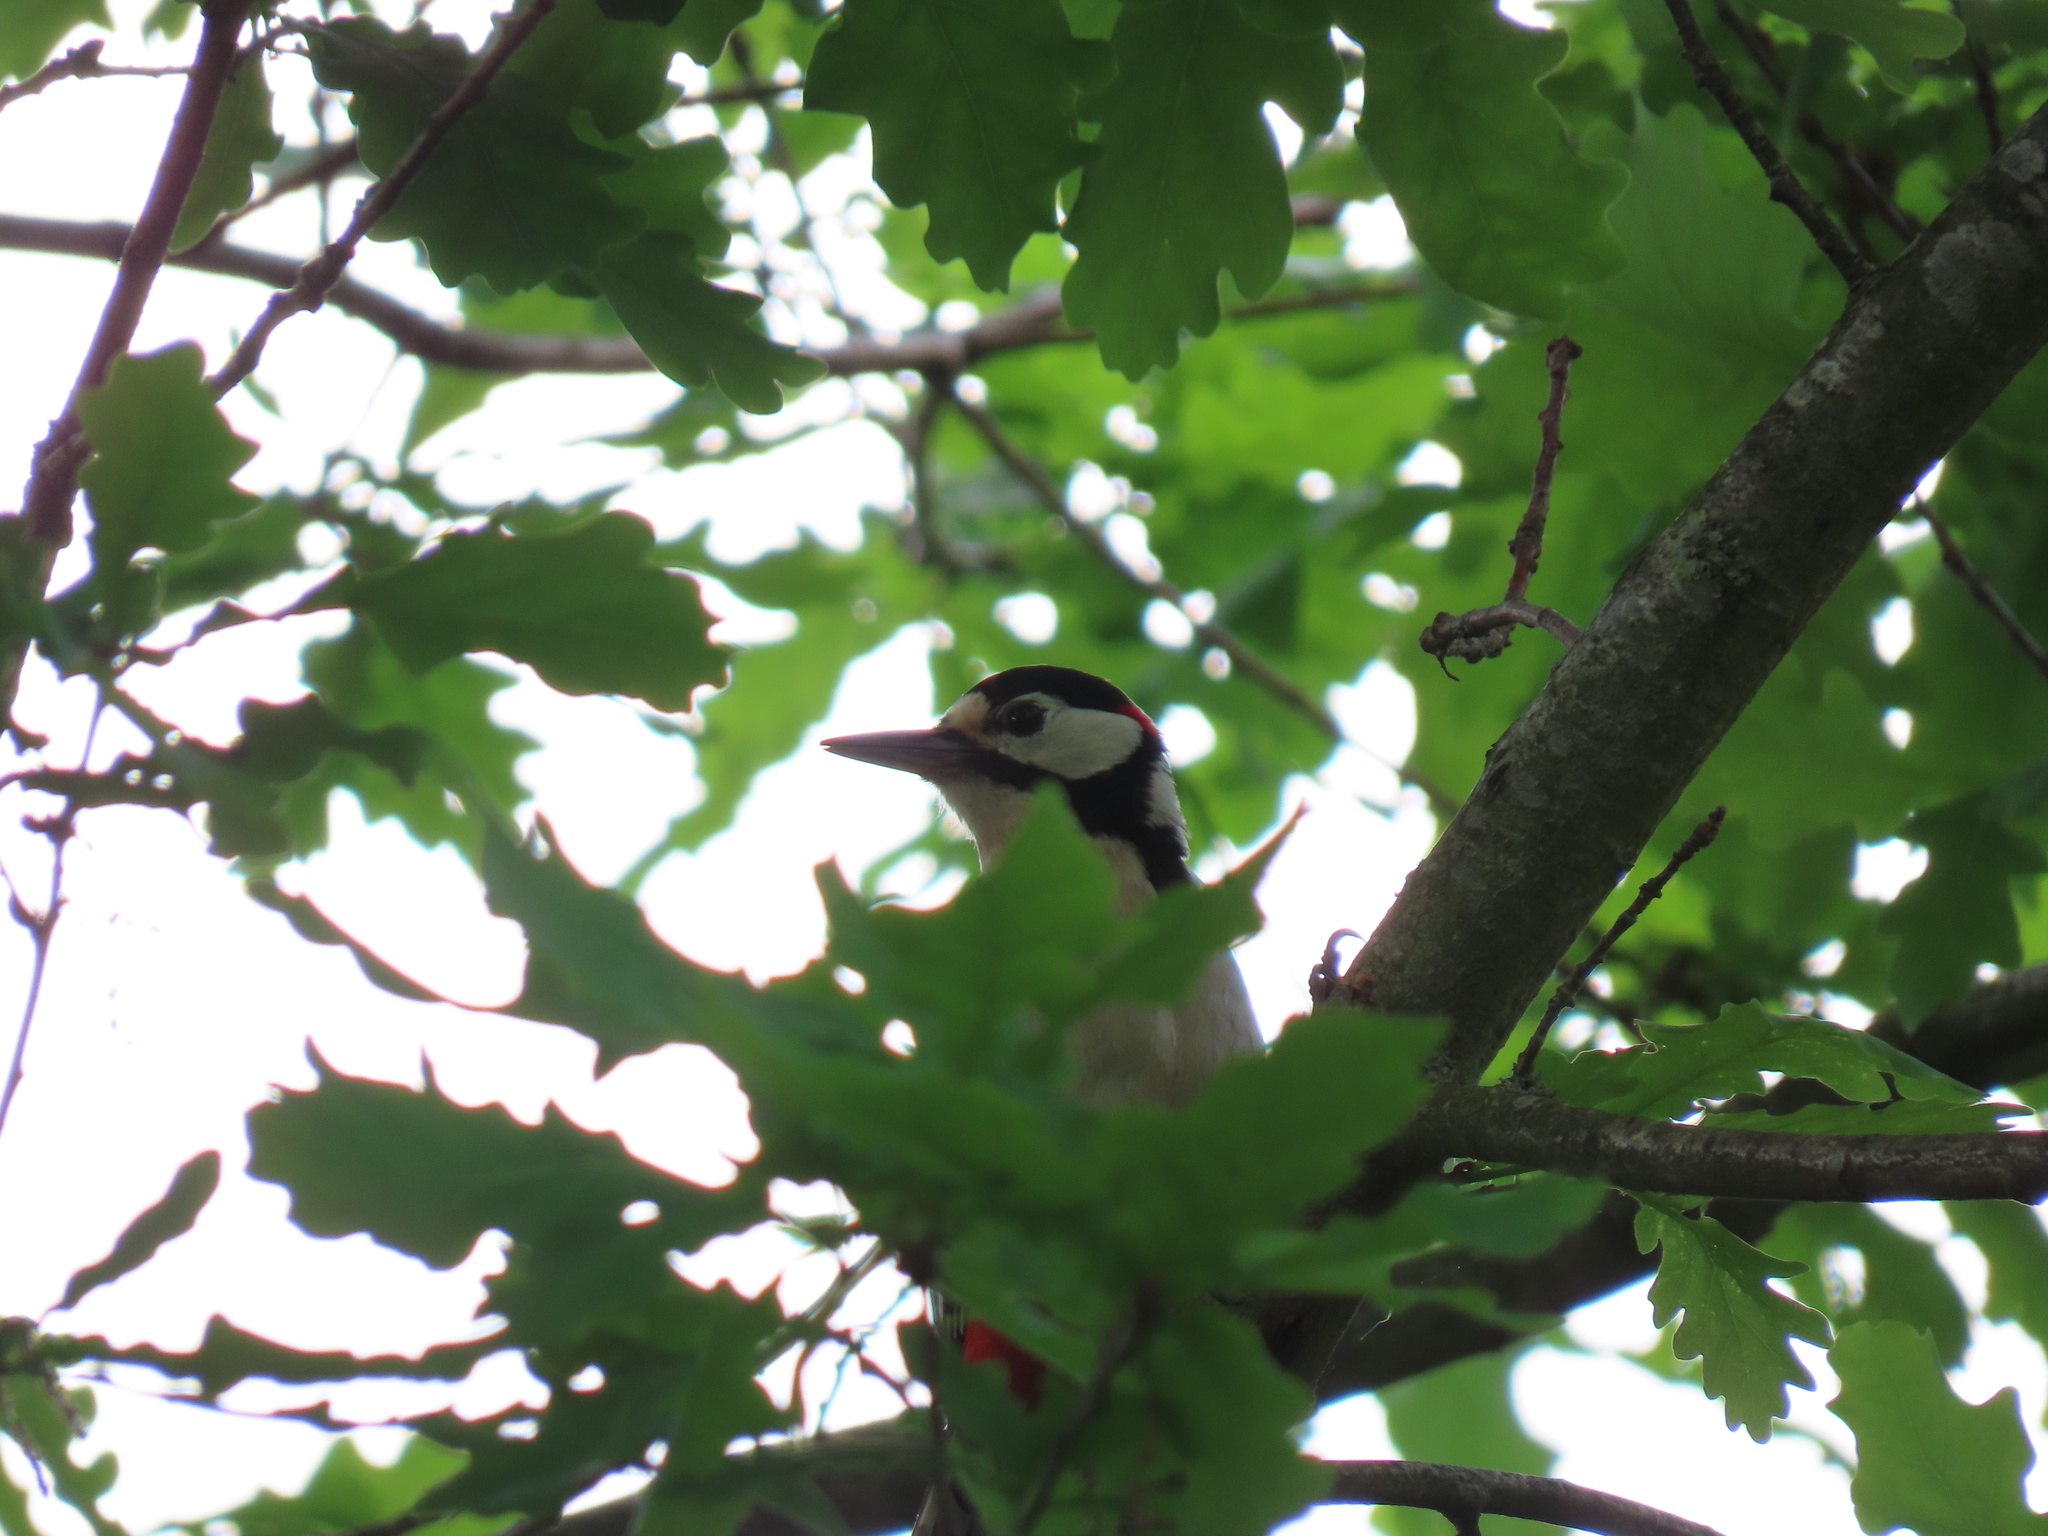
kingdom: Animalia
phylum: Chordata
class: Aves
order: Piciformes
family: Picidae
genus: Dendrocopos
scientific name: Dendrocopos major
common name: Great spotted woodpecker
